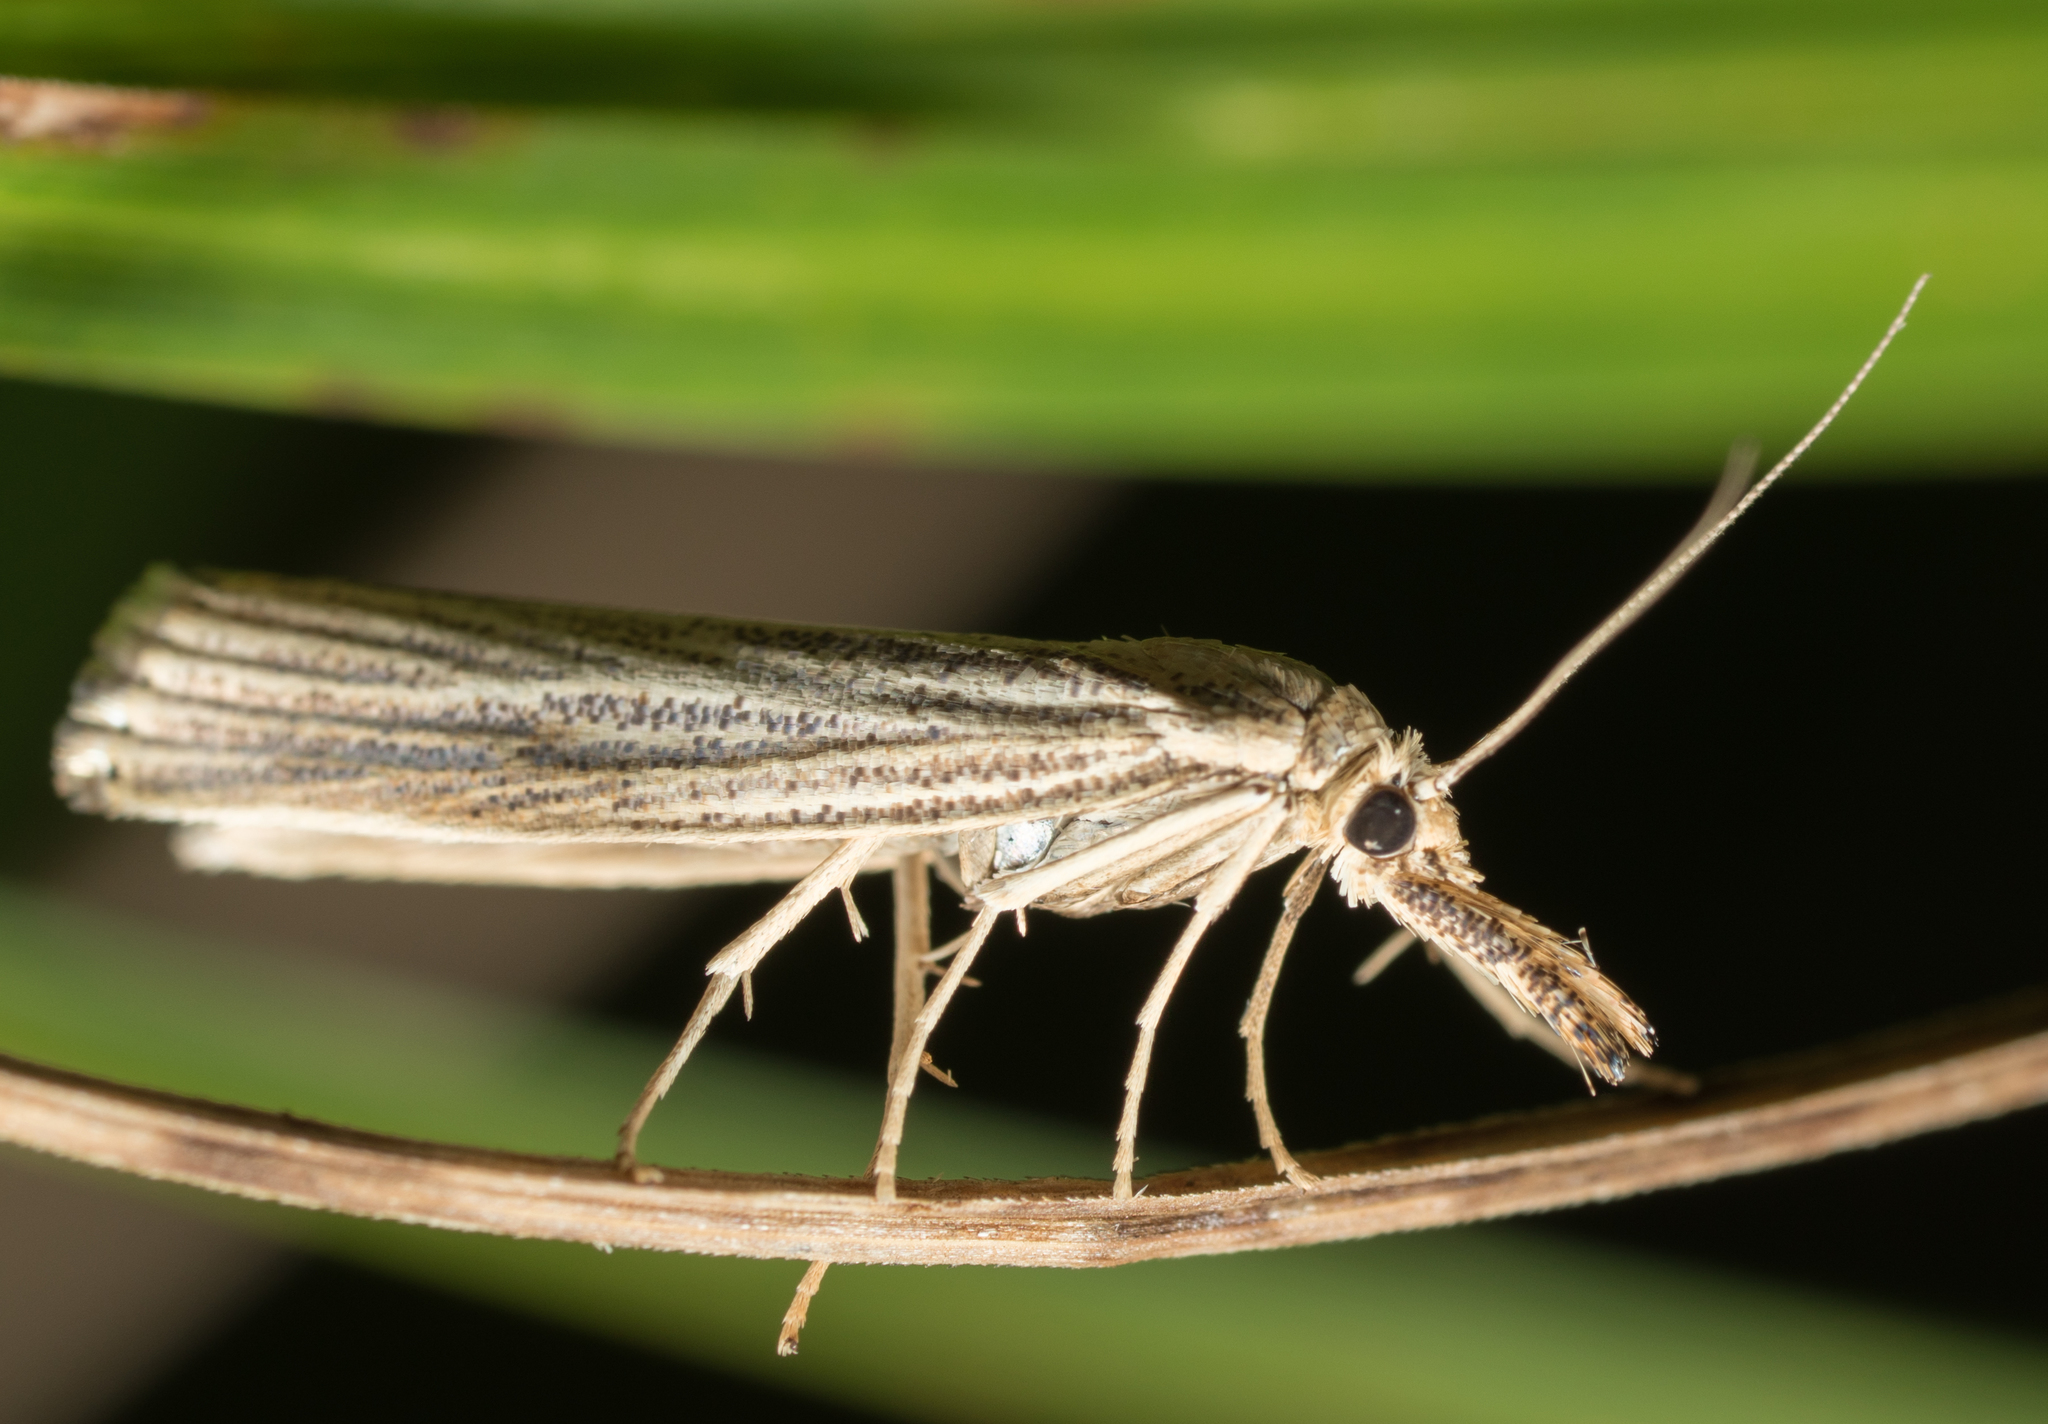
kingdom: Animalia
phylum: Arthropoda
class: Insecta
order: Lepidoptera
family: Crambidae
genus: Agriphila
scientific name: Agriphila vulgivagellus
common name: Vagabond crambus moth
